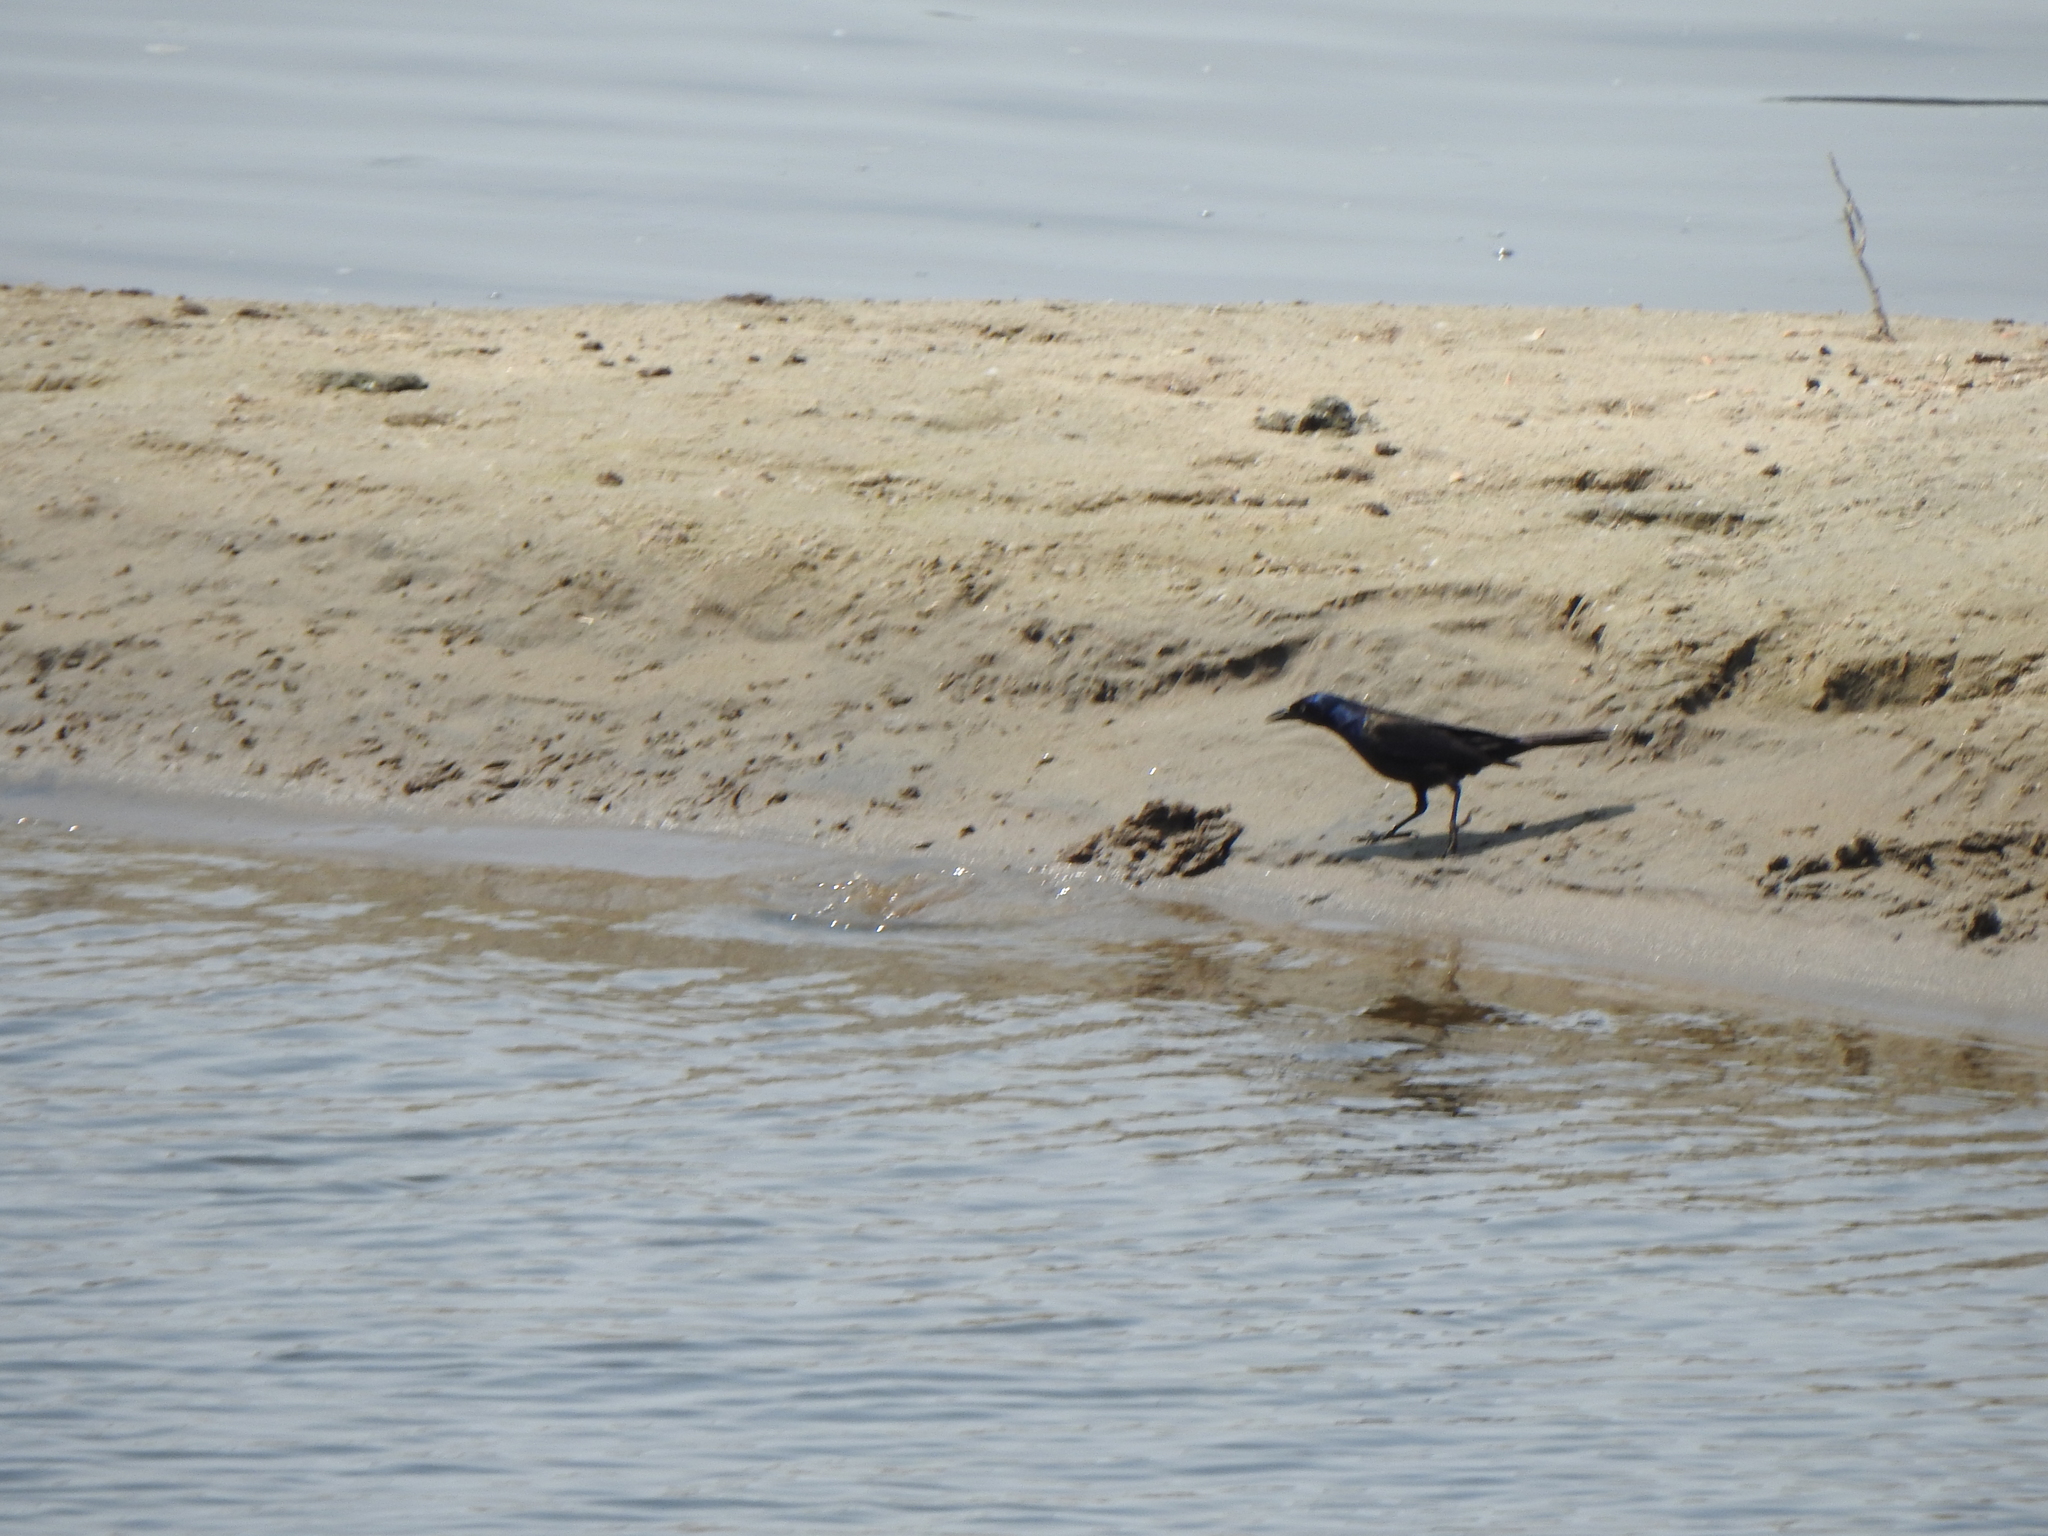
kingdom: Animalia
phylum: Chordata
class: Aves
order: Passeriformes
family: Icteridae
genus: Quiscalus
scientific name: Quiscalus quiscula
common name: Common grackle
